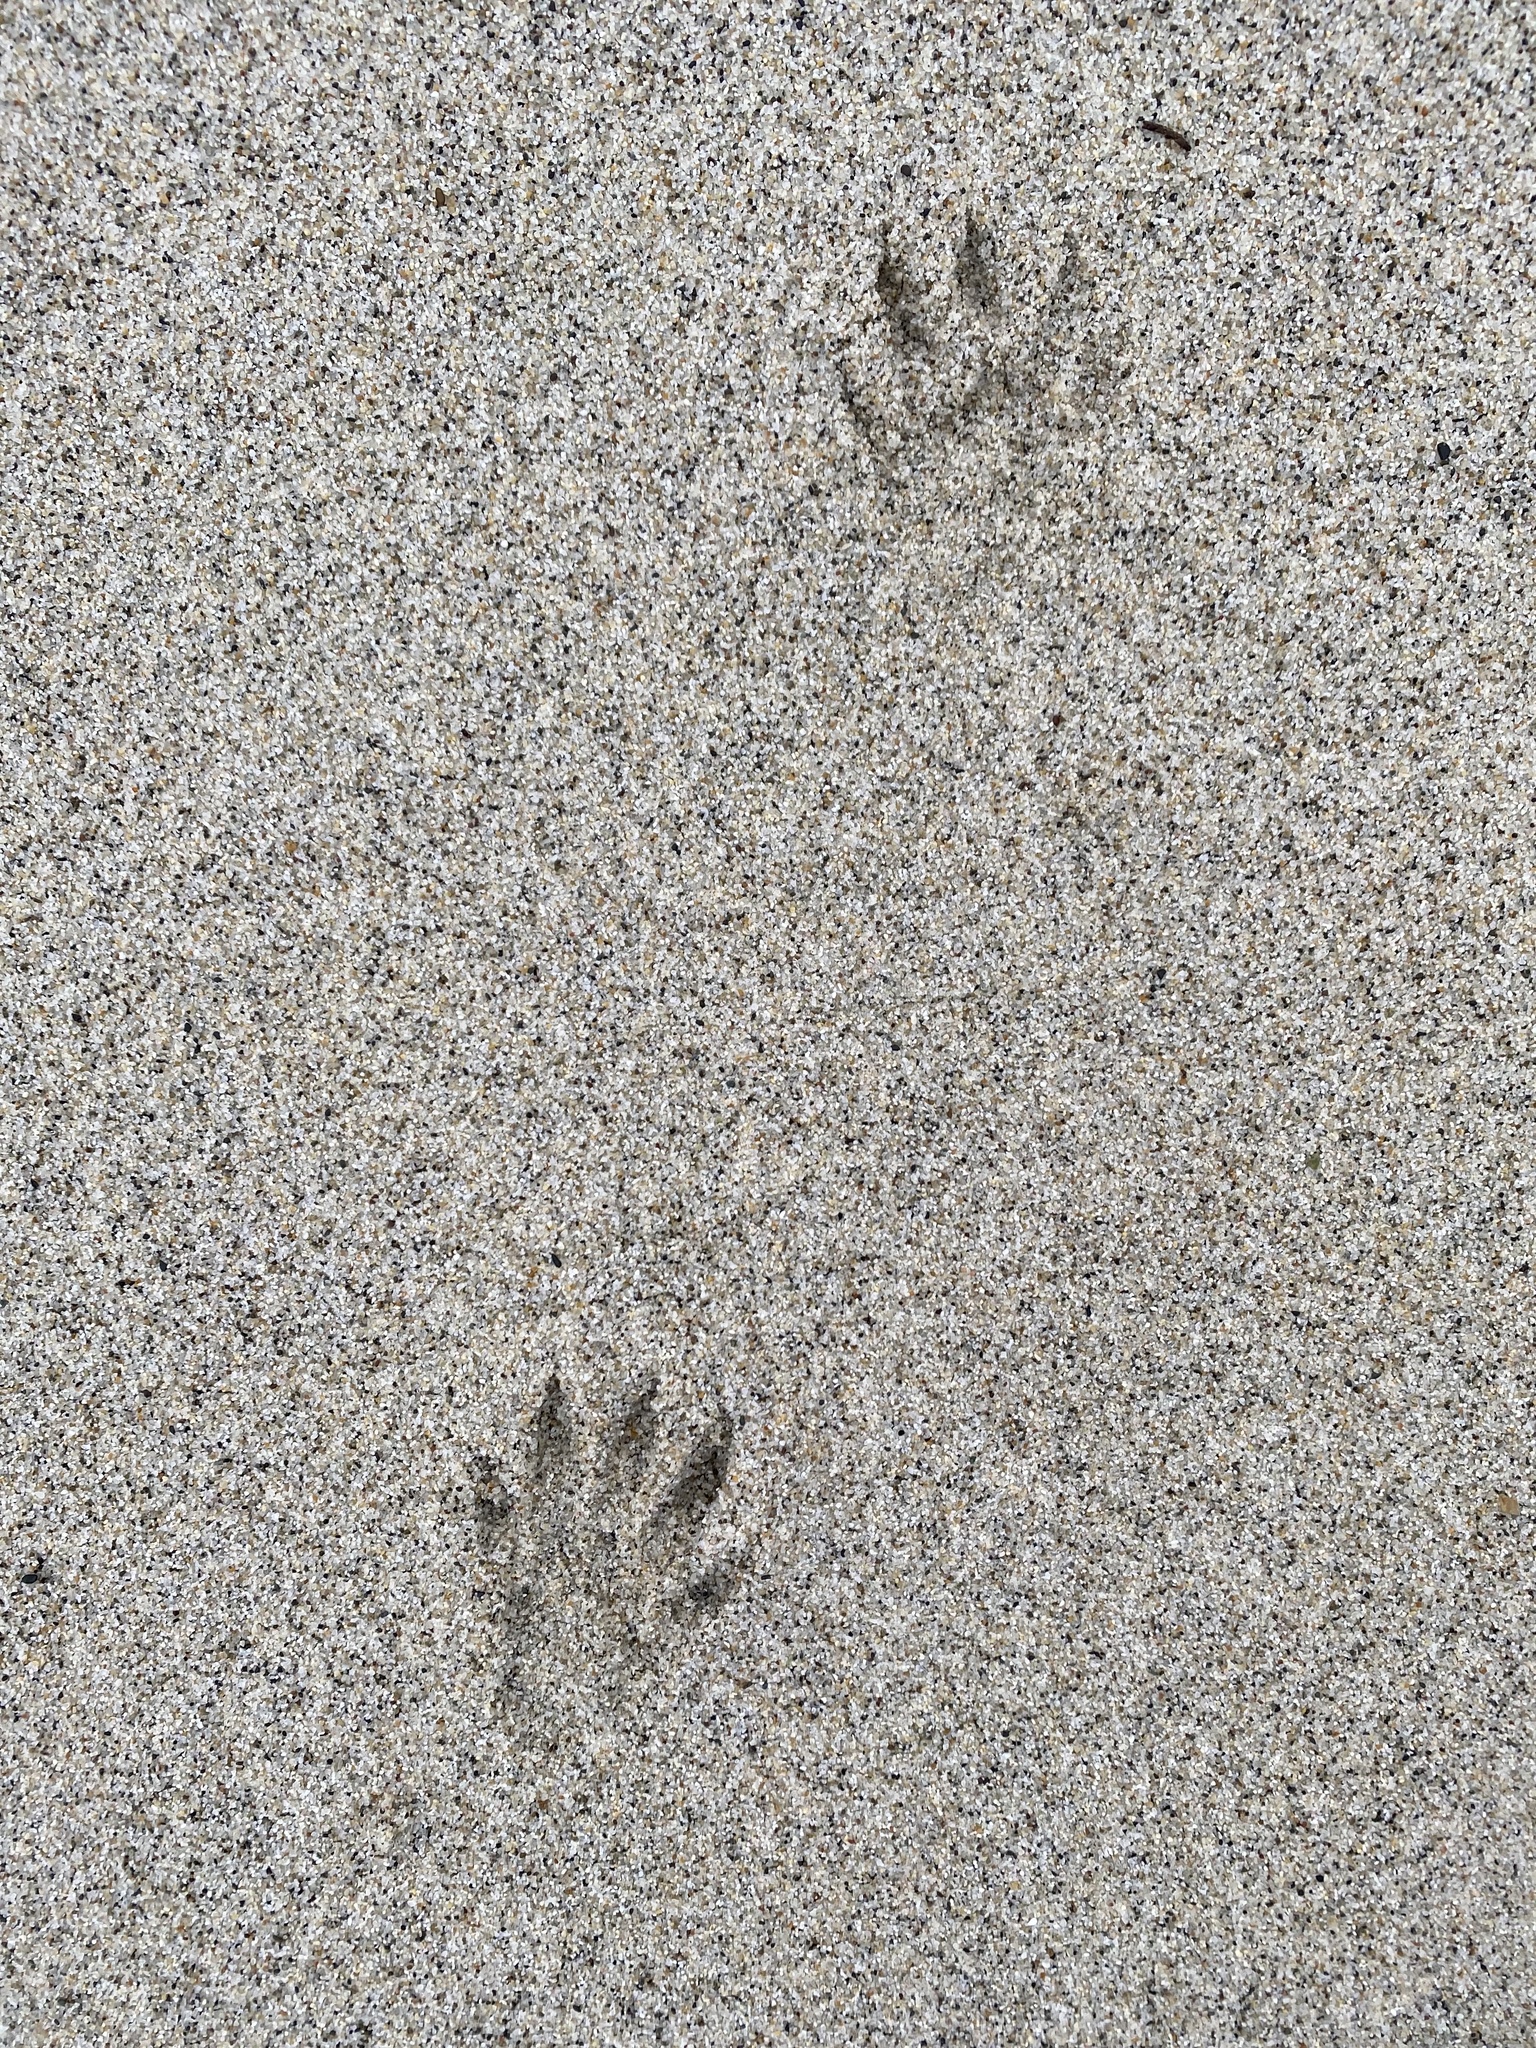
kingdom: Animalia
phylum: Chordata
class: Mammalia
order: Carnivora
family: Procyonidae
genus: Procyon
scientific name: Procyon lotor
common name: Raccoon
